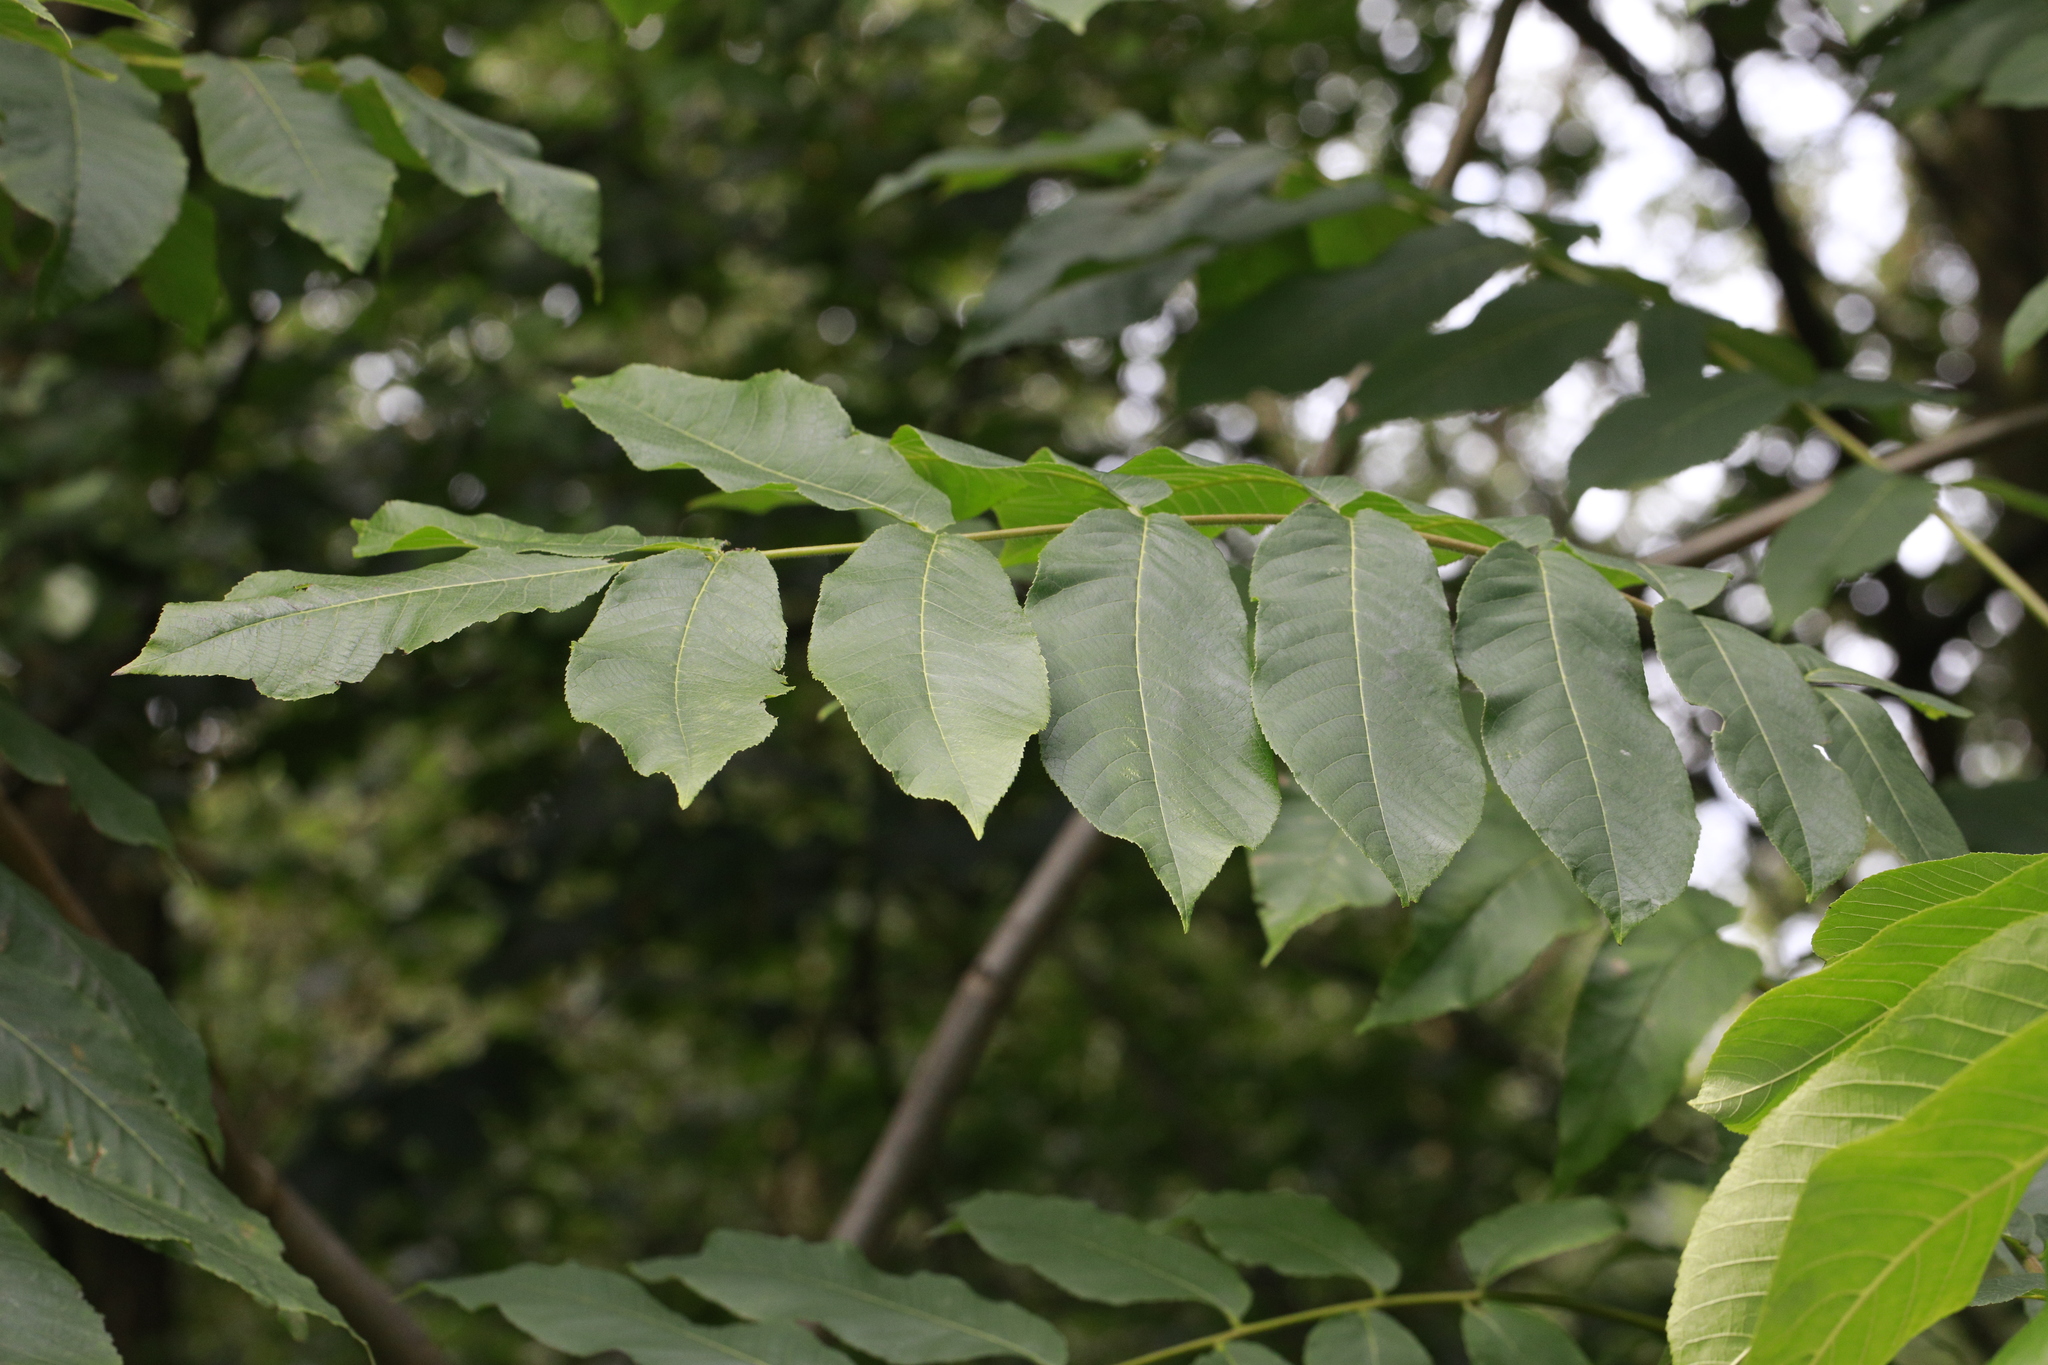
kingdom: Plantae
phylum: Tracheophyta
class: Magnoliopsida
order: Lamiales
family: Oleaceae
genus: Fraxinus
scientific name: Fraxinus excelsior
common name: European ash
